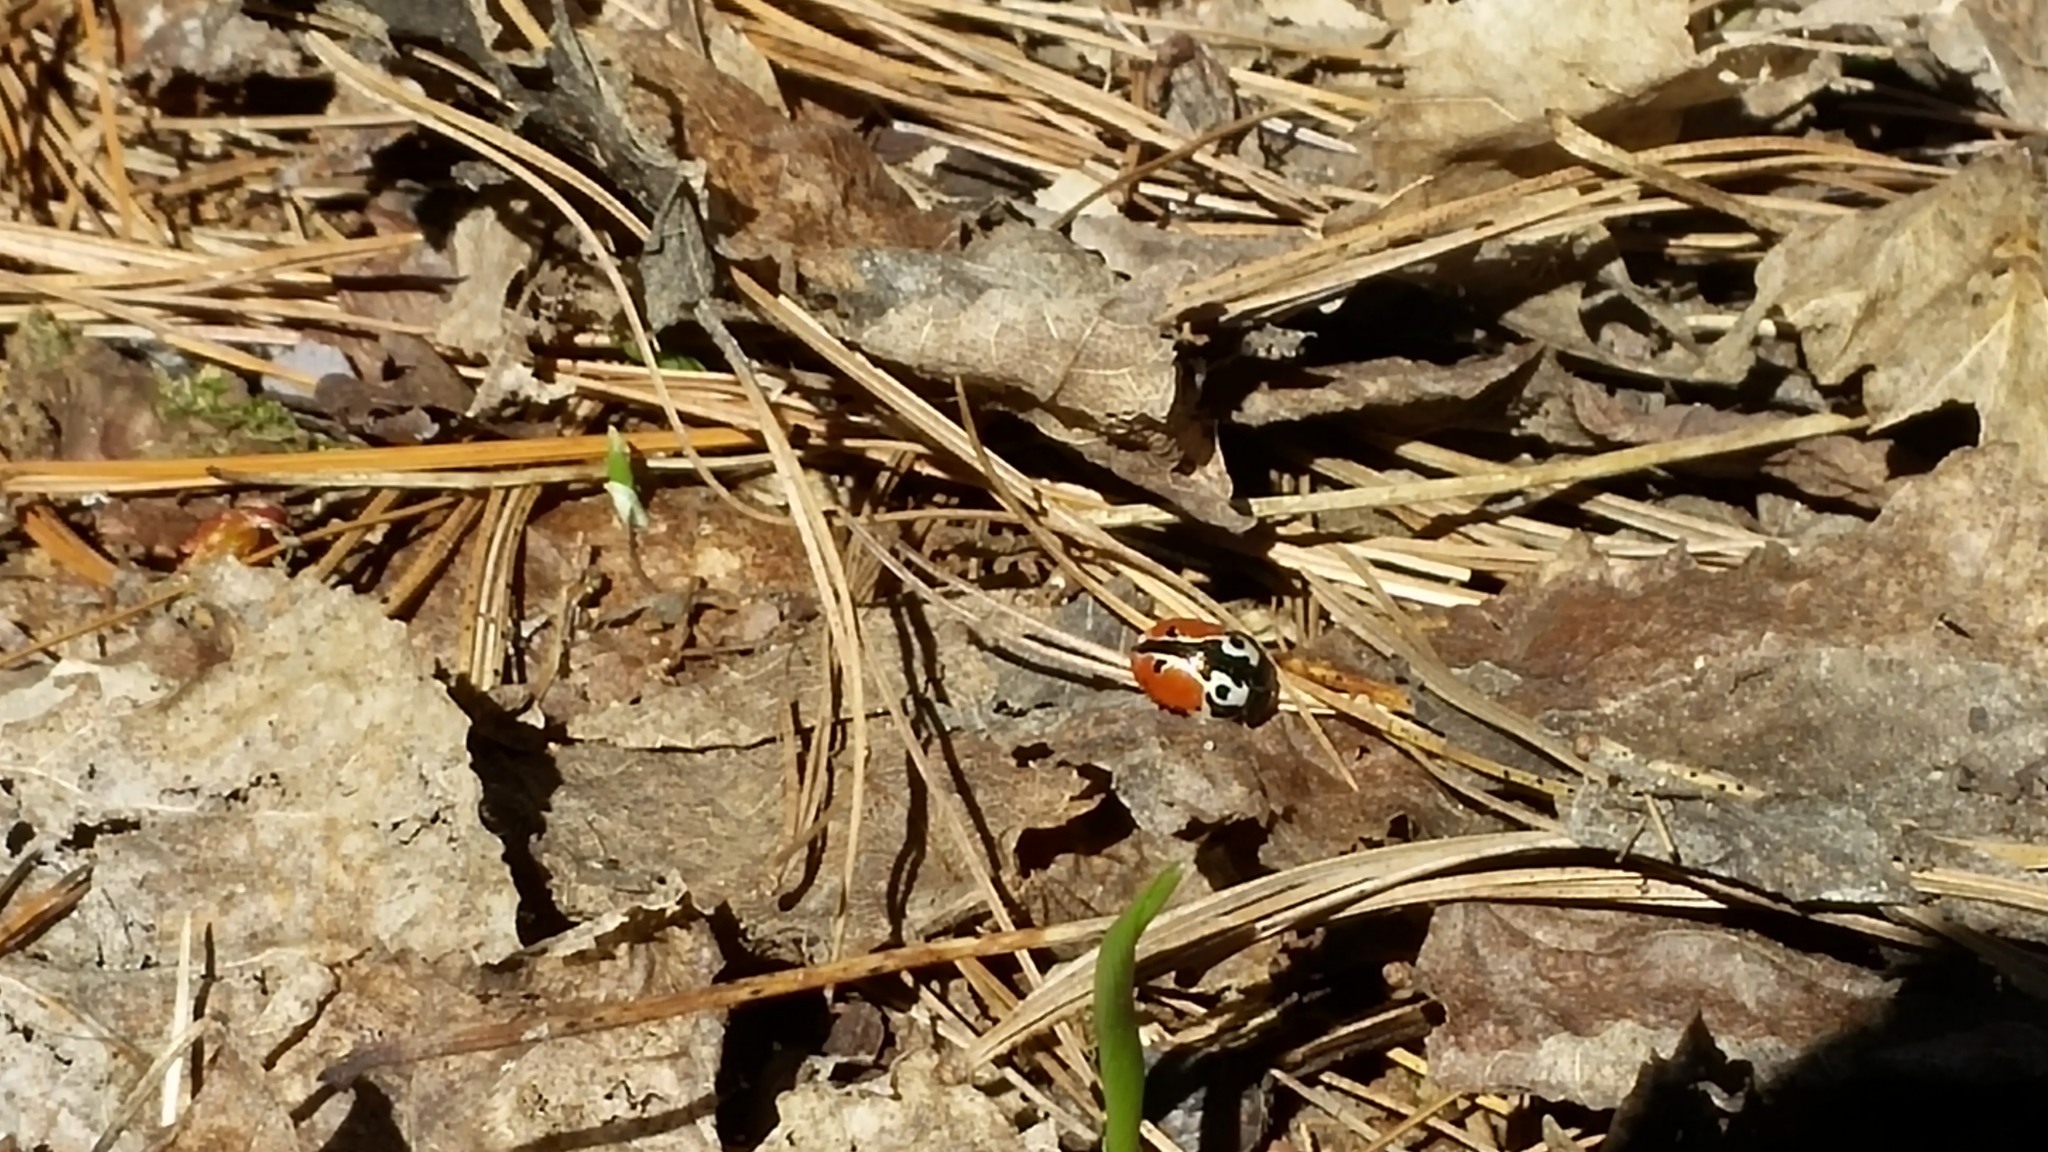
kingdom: Animalia
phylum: Arthropoda
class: Insecta
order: Coleoptera
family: Chrysomelidae
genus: Calligrapha
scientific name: Calligrapha rowena
